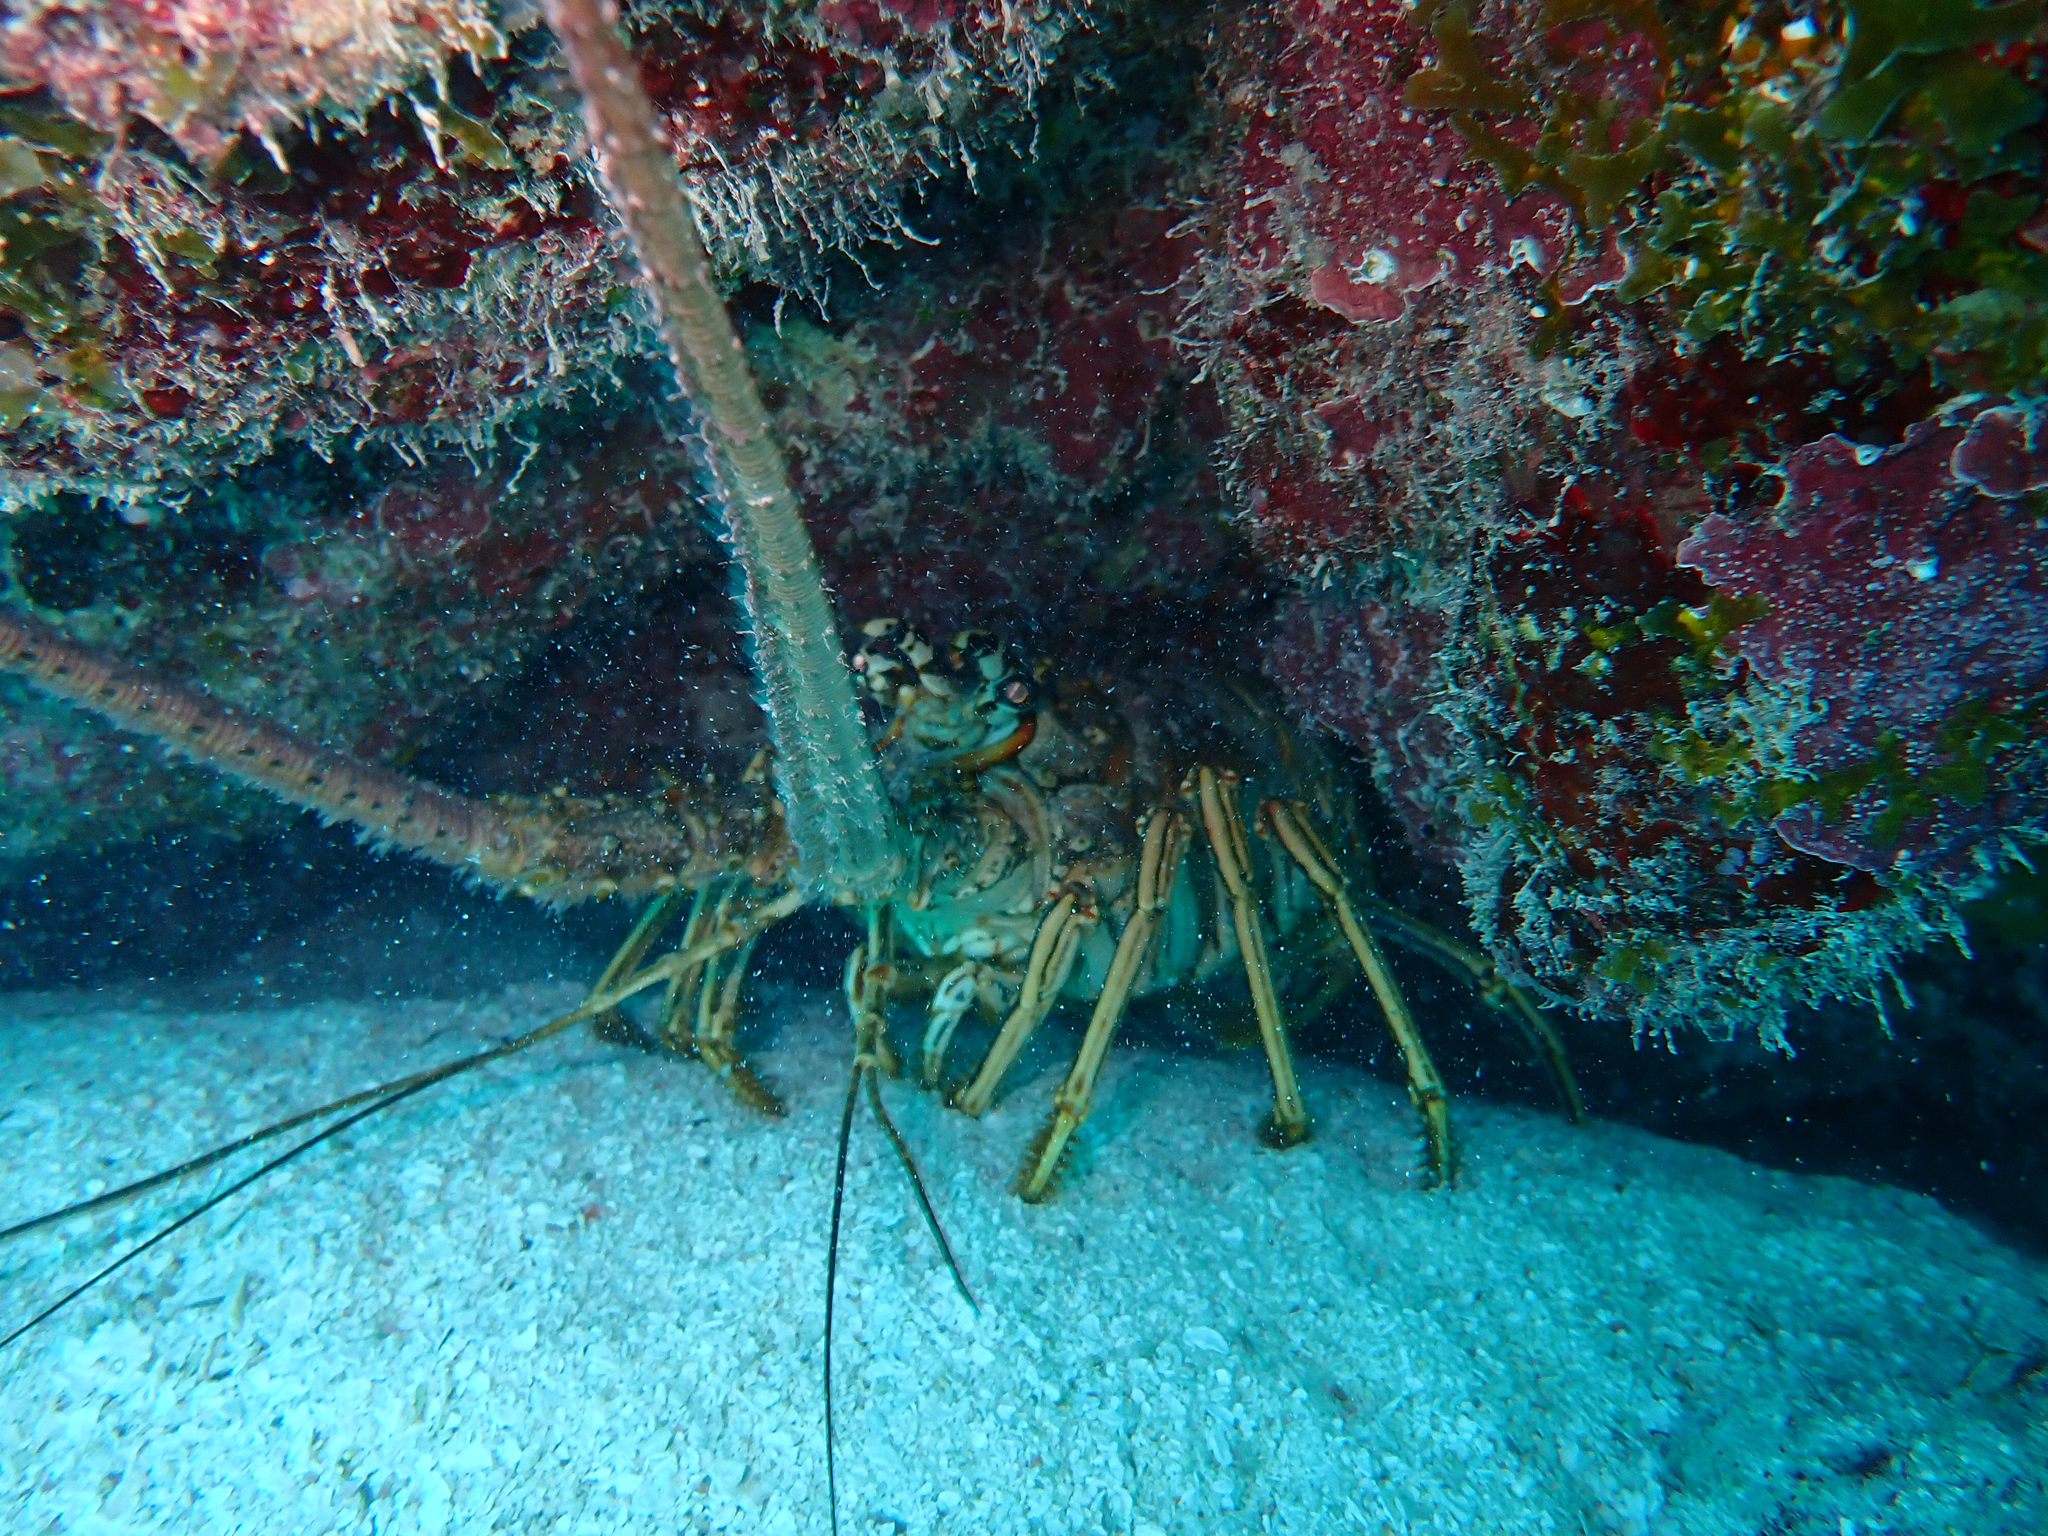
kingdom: Animalia
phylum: Arthropoda
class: Malacostraca
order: Decapoda
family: Palinuridae
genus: Panulirus
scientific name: Panulirus argus
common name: Caribbean spiny lobster
